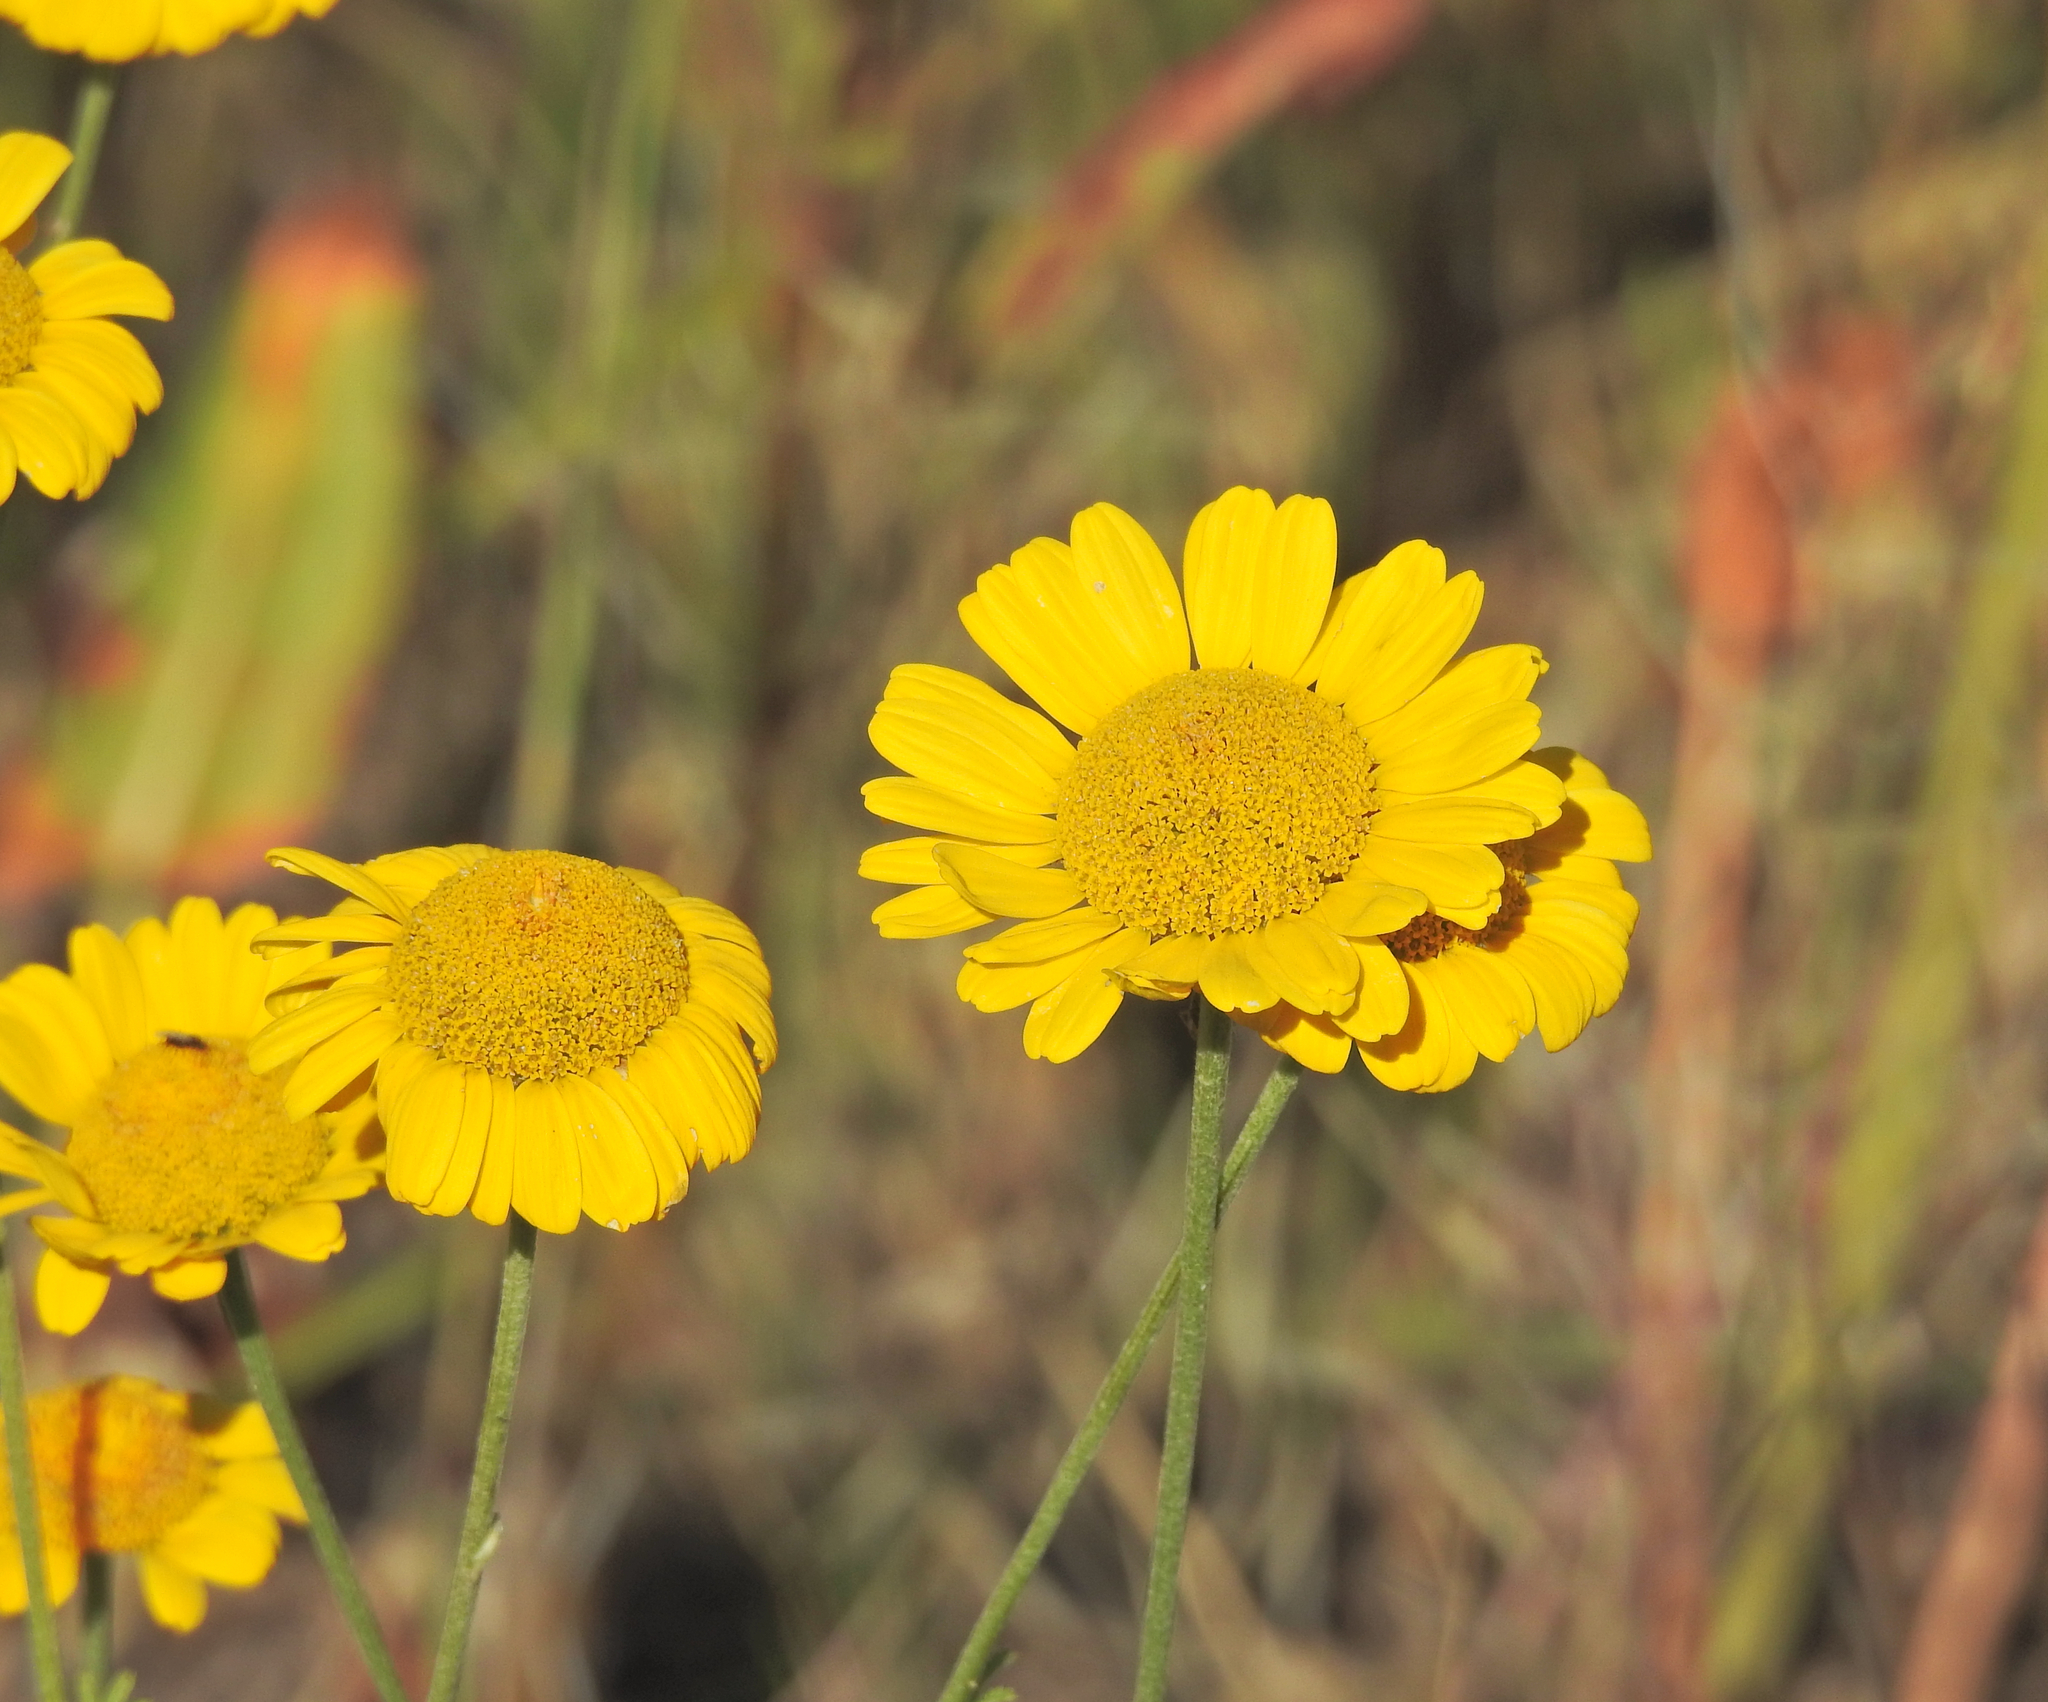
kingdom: Plantae
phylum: Tracheophyta
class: Magnoliopsida
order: Asterales
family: Asteraceae
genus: Cota
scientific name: Cota tinctoria
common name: Golden chamomile
